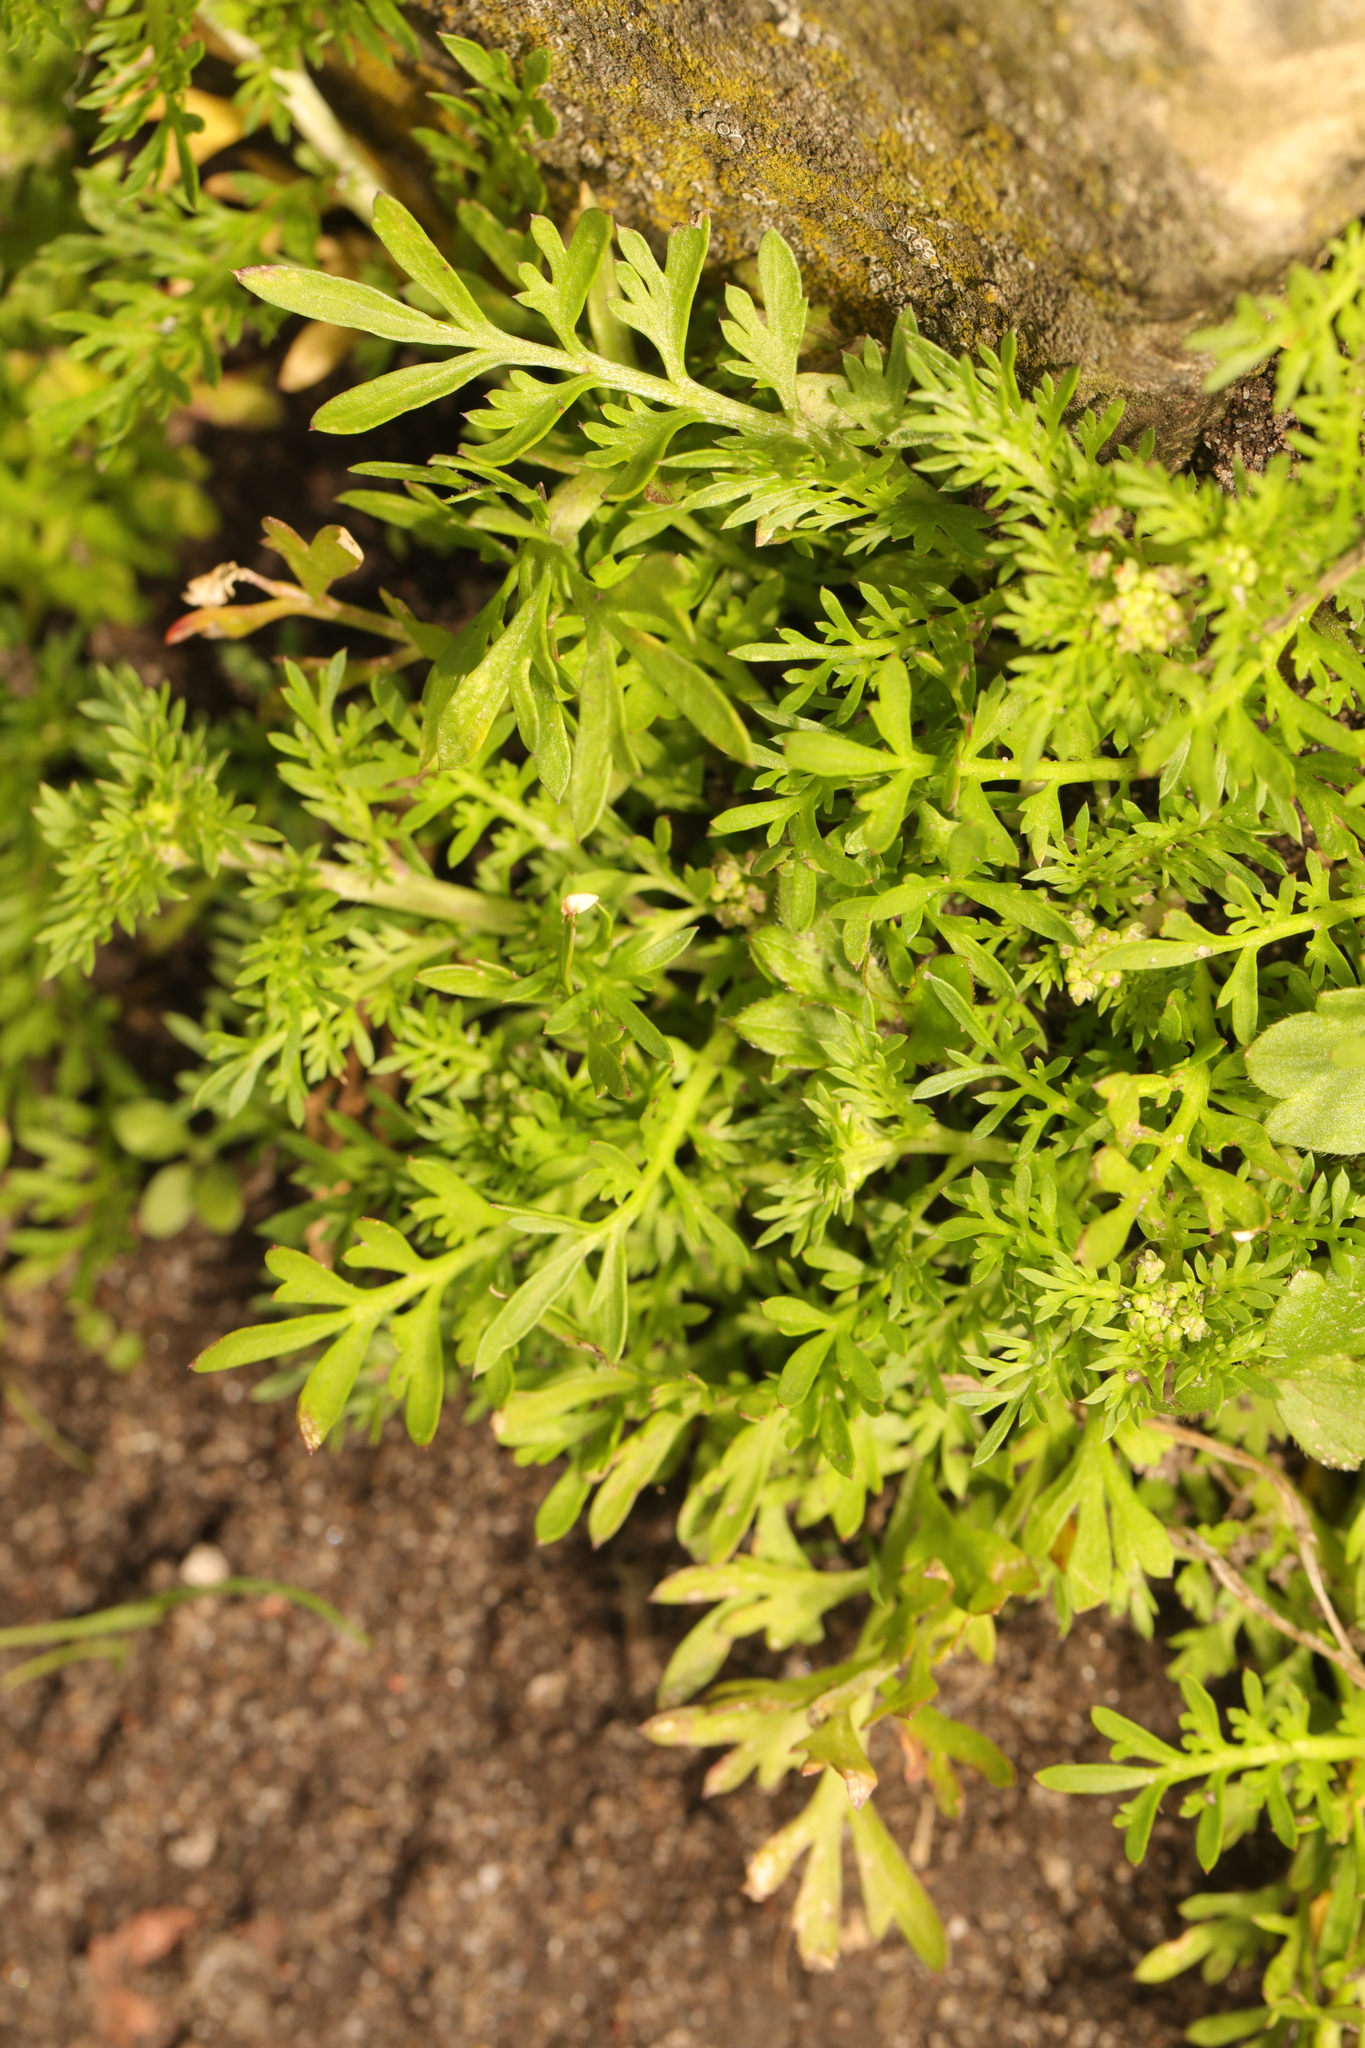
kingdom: Plantae
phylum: Tracheophyta
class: Magnoliopsida
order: Brassicales
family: Brassicaceae
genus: Lepidium
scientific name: Lepidium didymum
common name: Lesser swinecress
